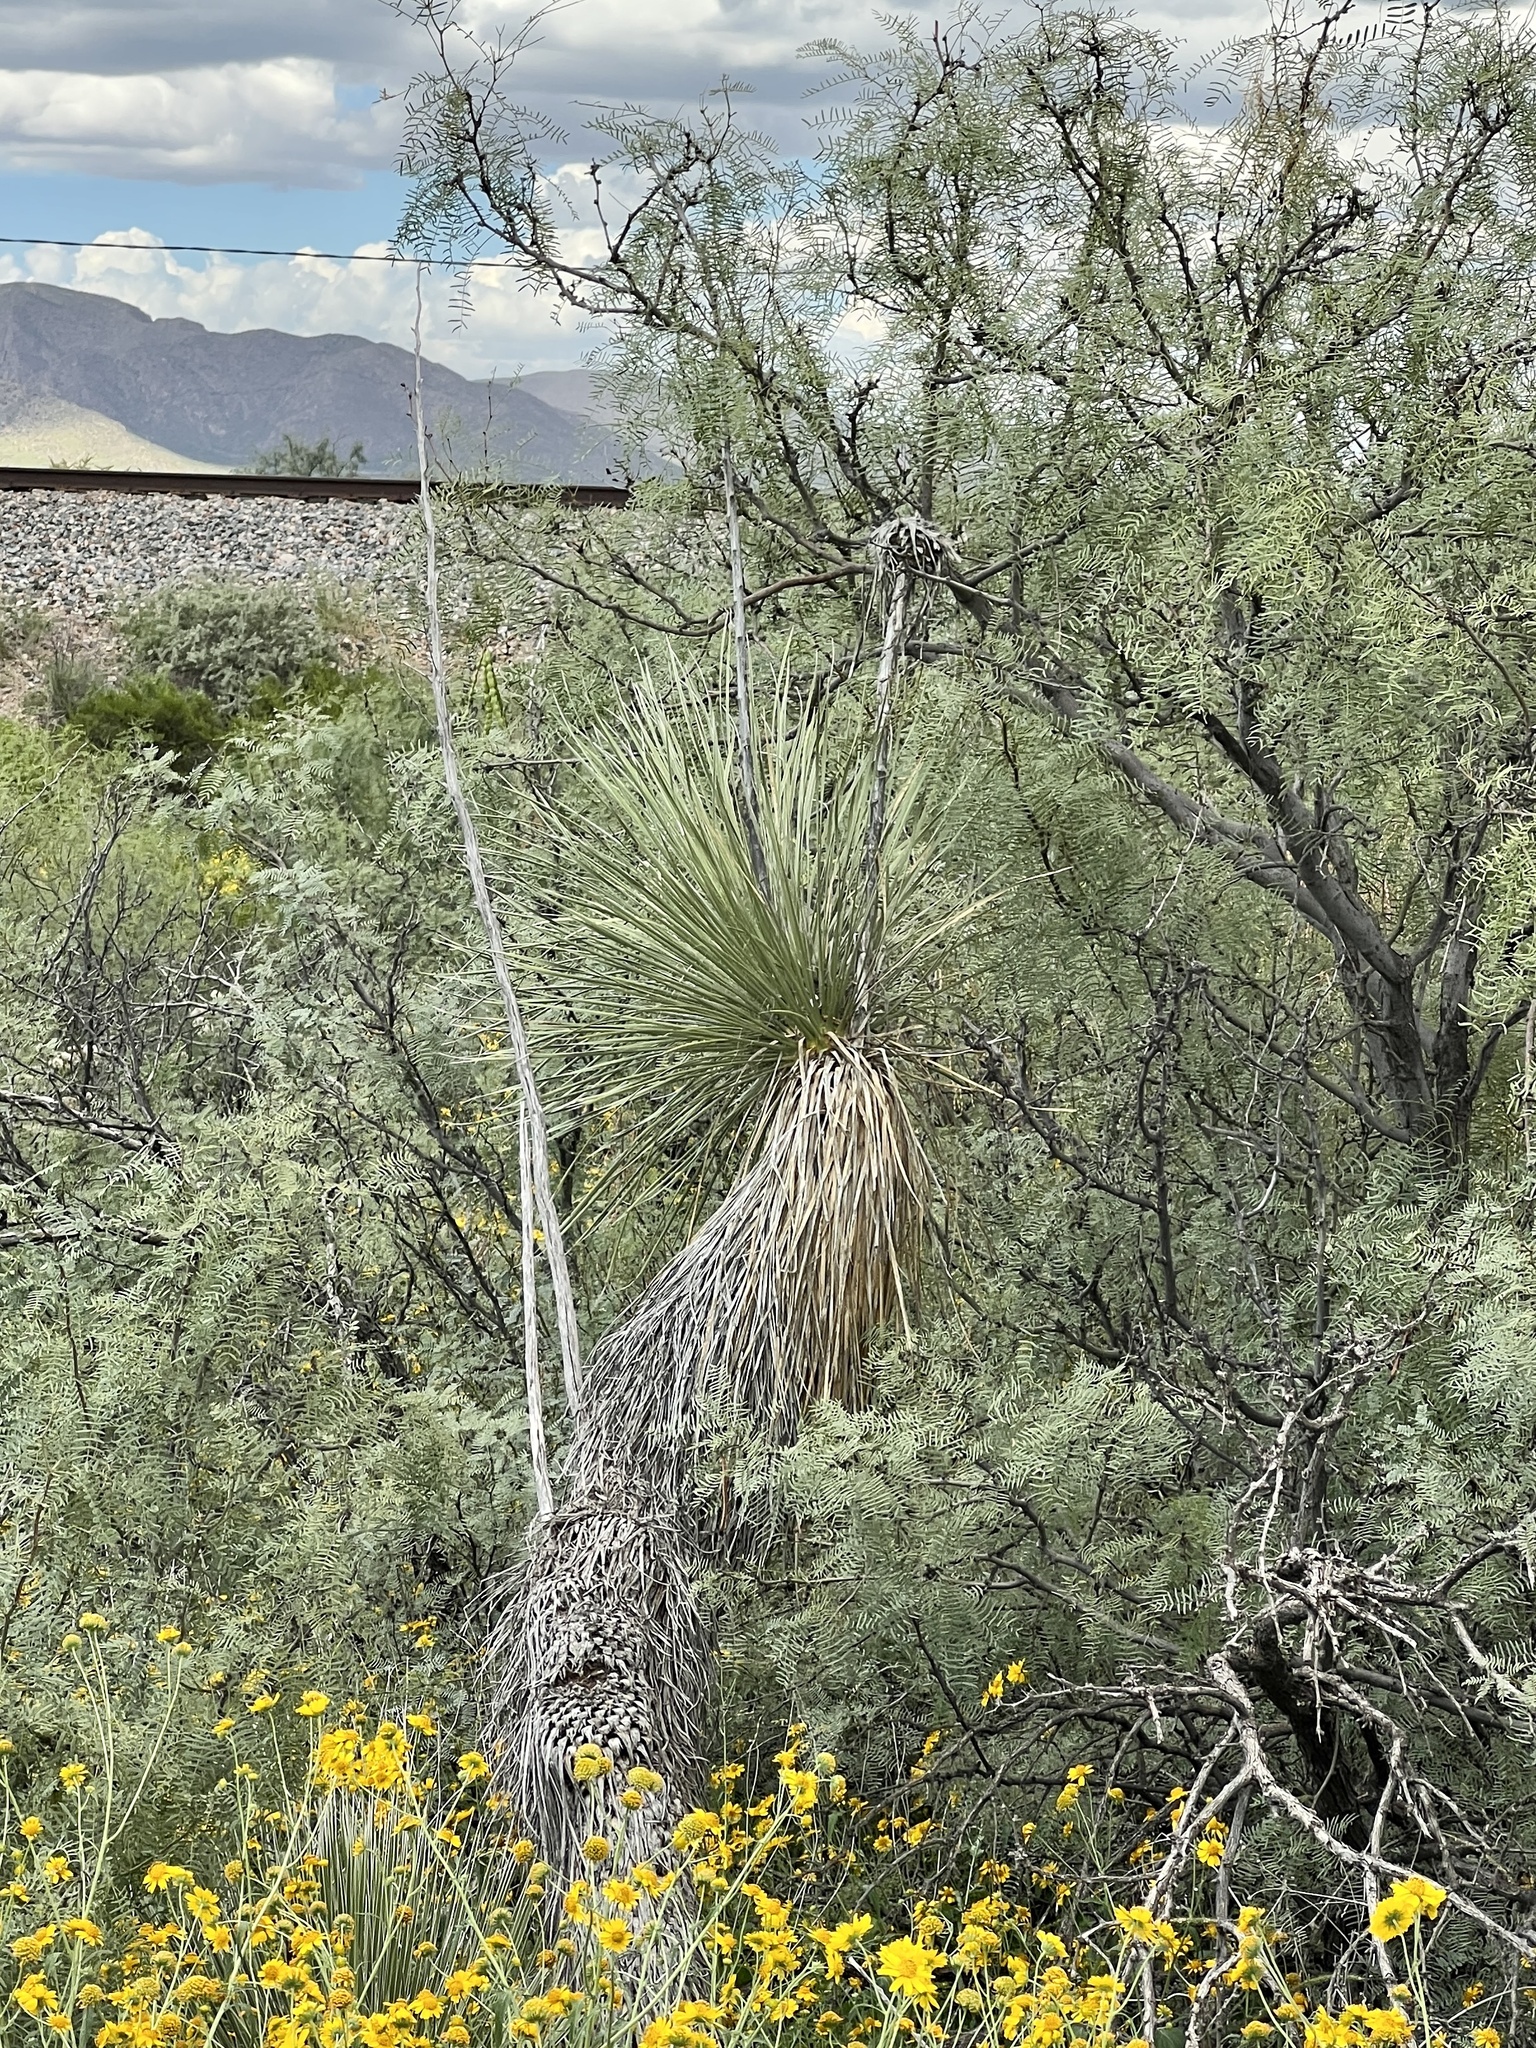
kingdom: Plantae
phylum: Tracheophyta
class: Liliopsida
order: Asparagales
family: Asparagaceae
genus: Yucca
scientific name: Yucca elata
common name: Palmella
